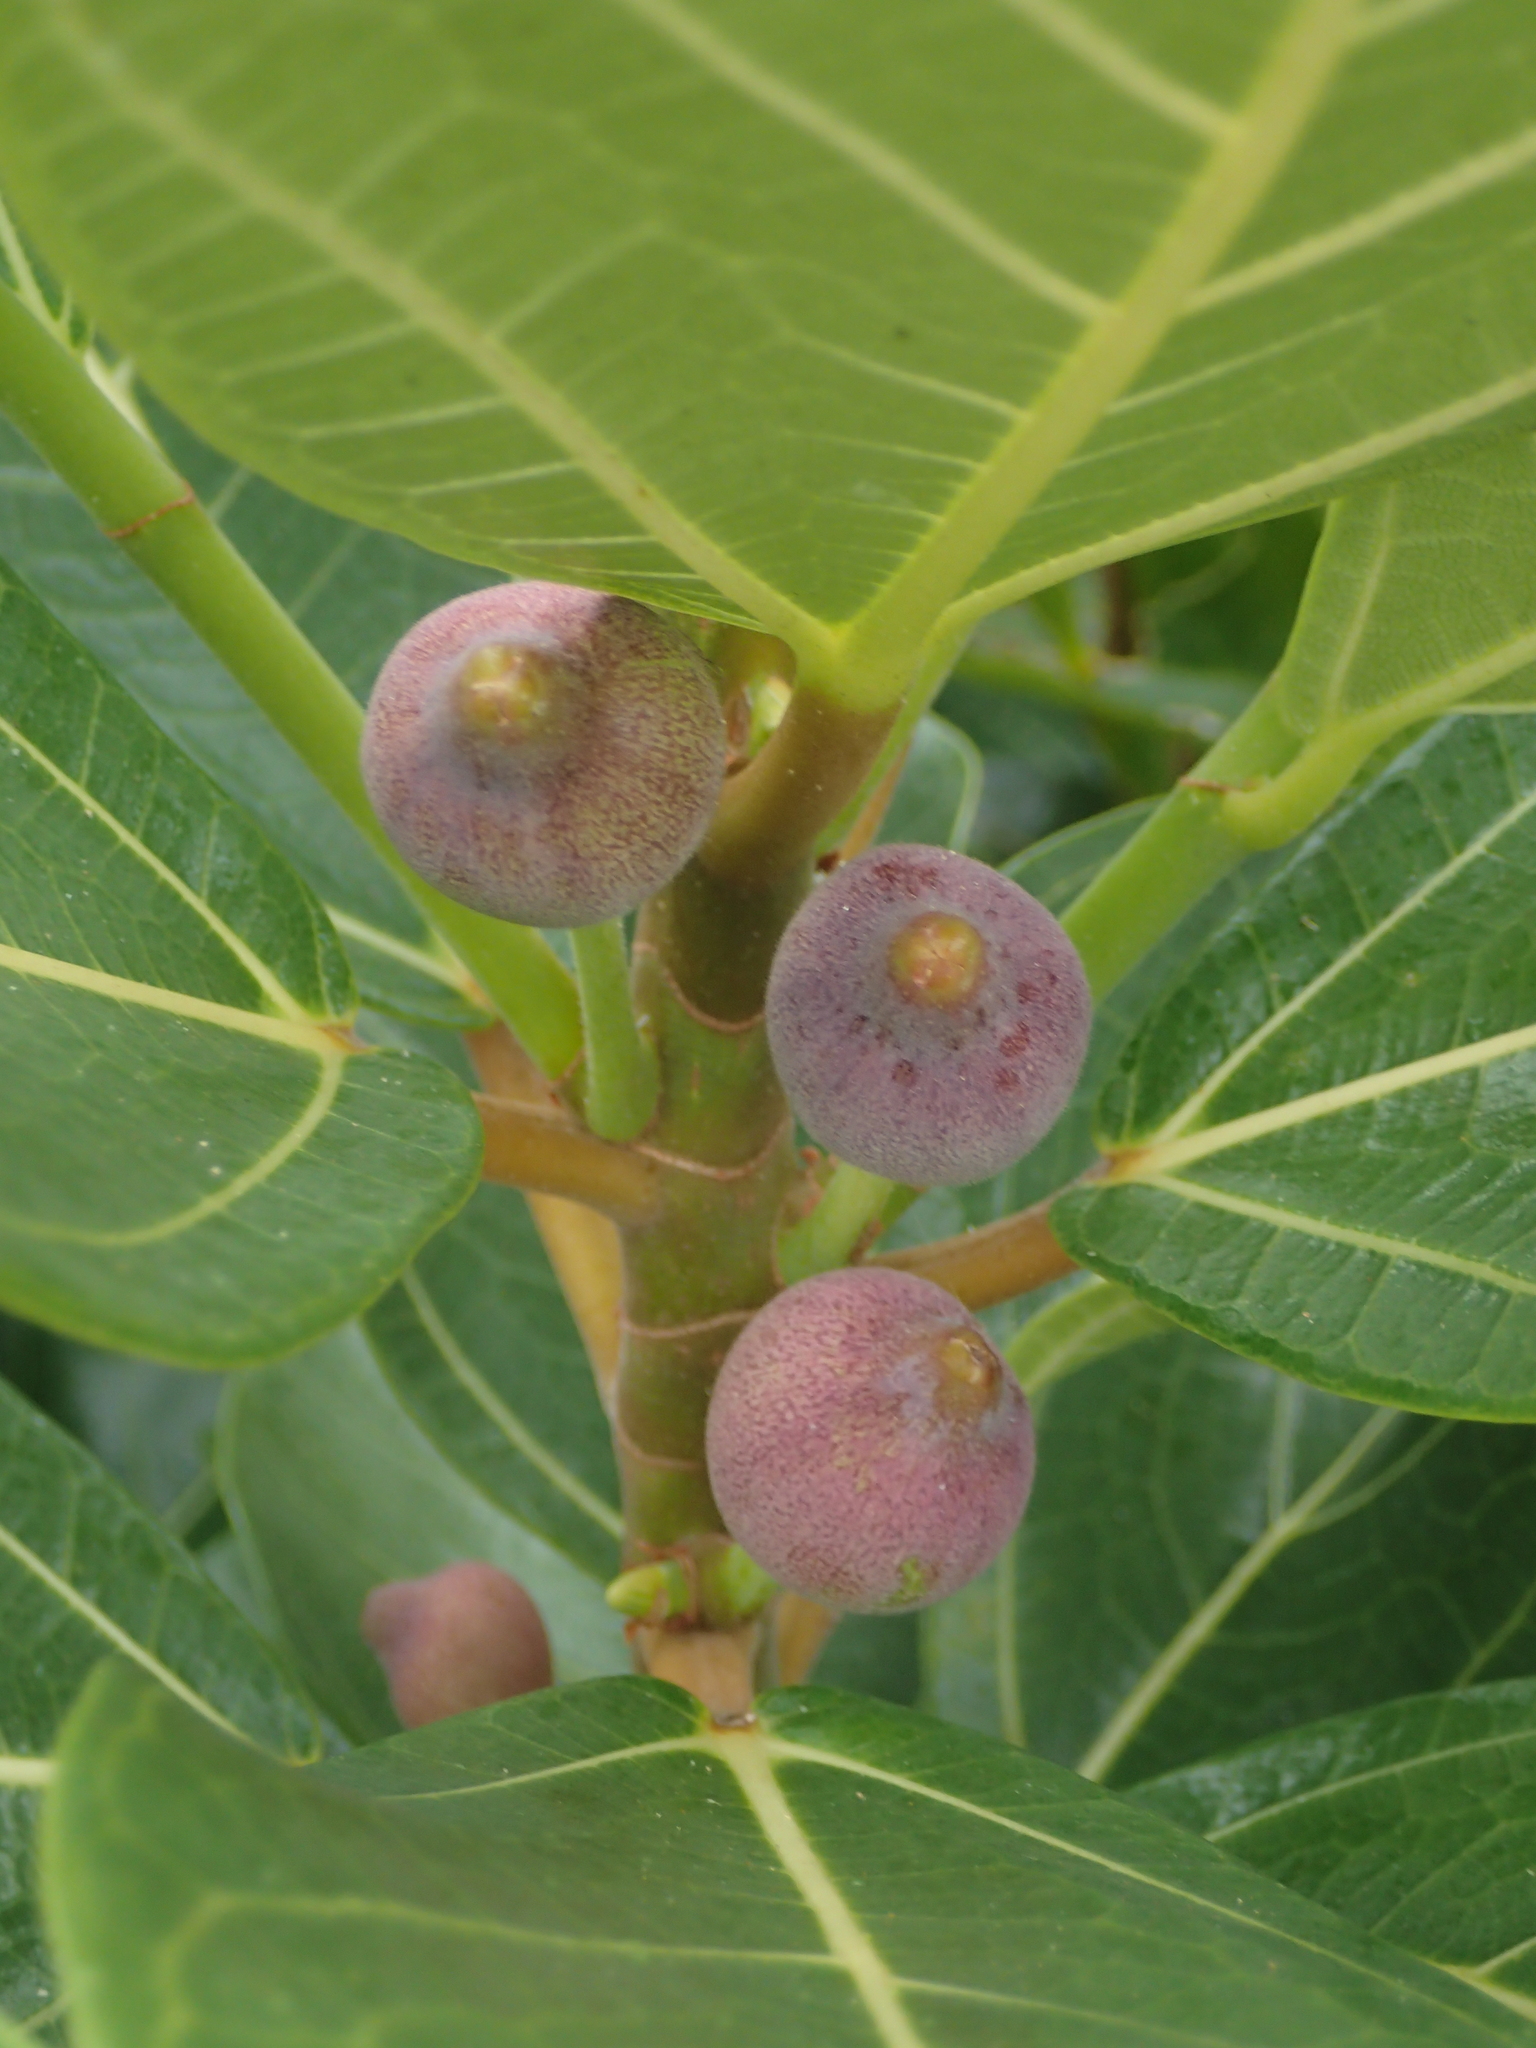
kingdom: Plantae
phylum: Tracheophyta
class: Magnoliopsida
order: Rosales
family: Moraceae
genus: Ficus
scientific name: Ficus pedunculosa
